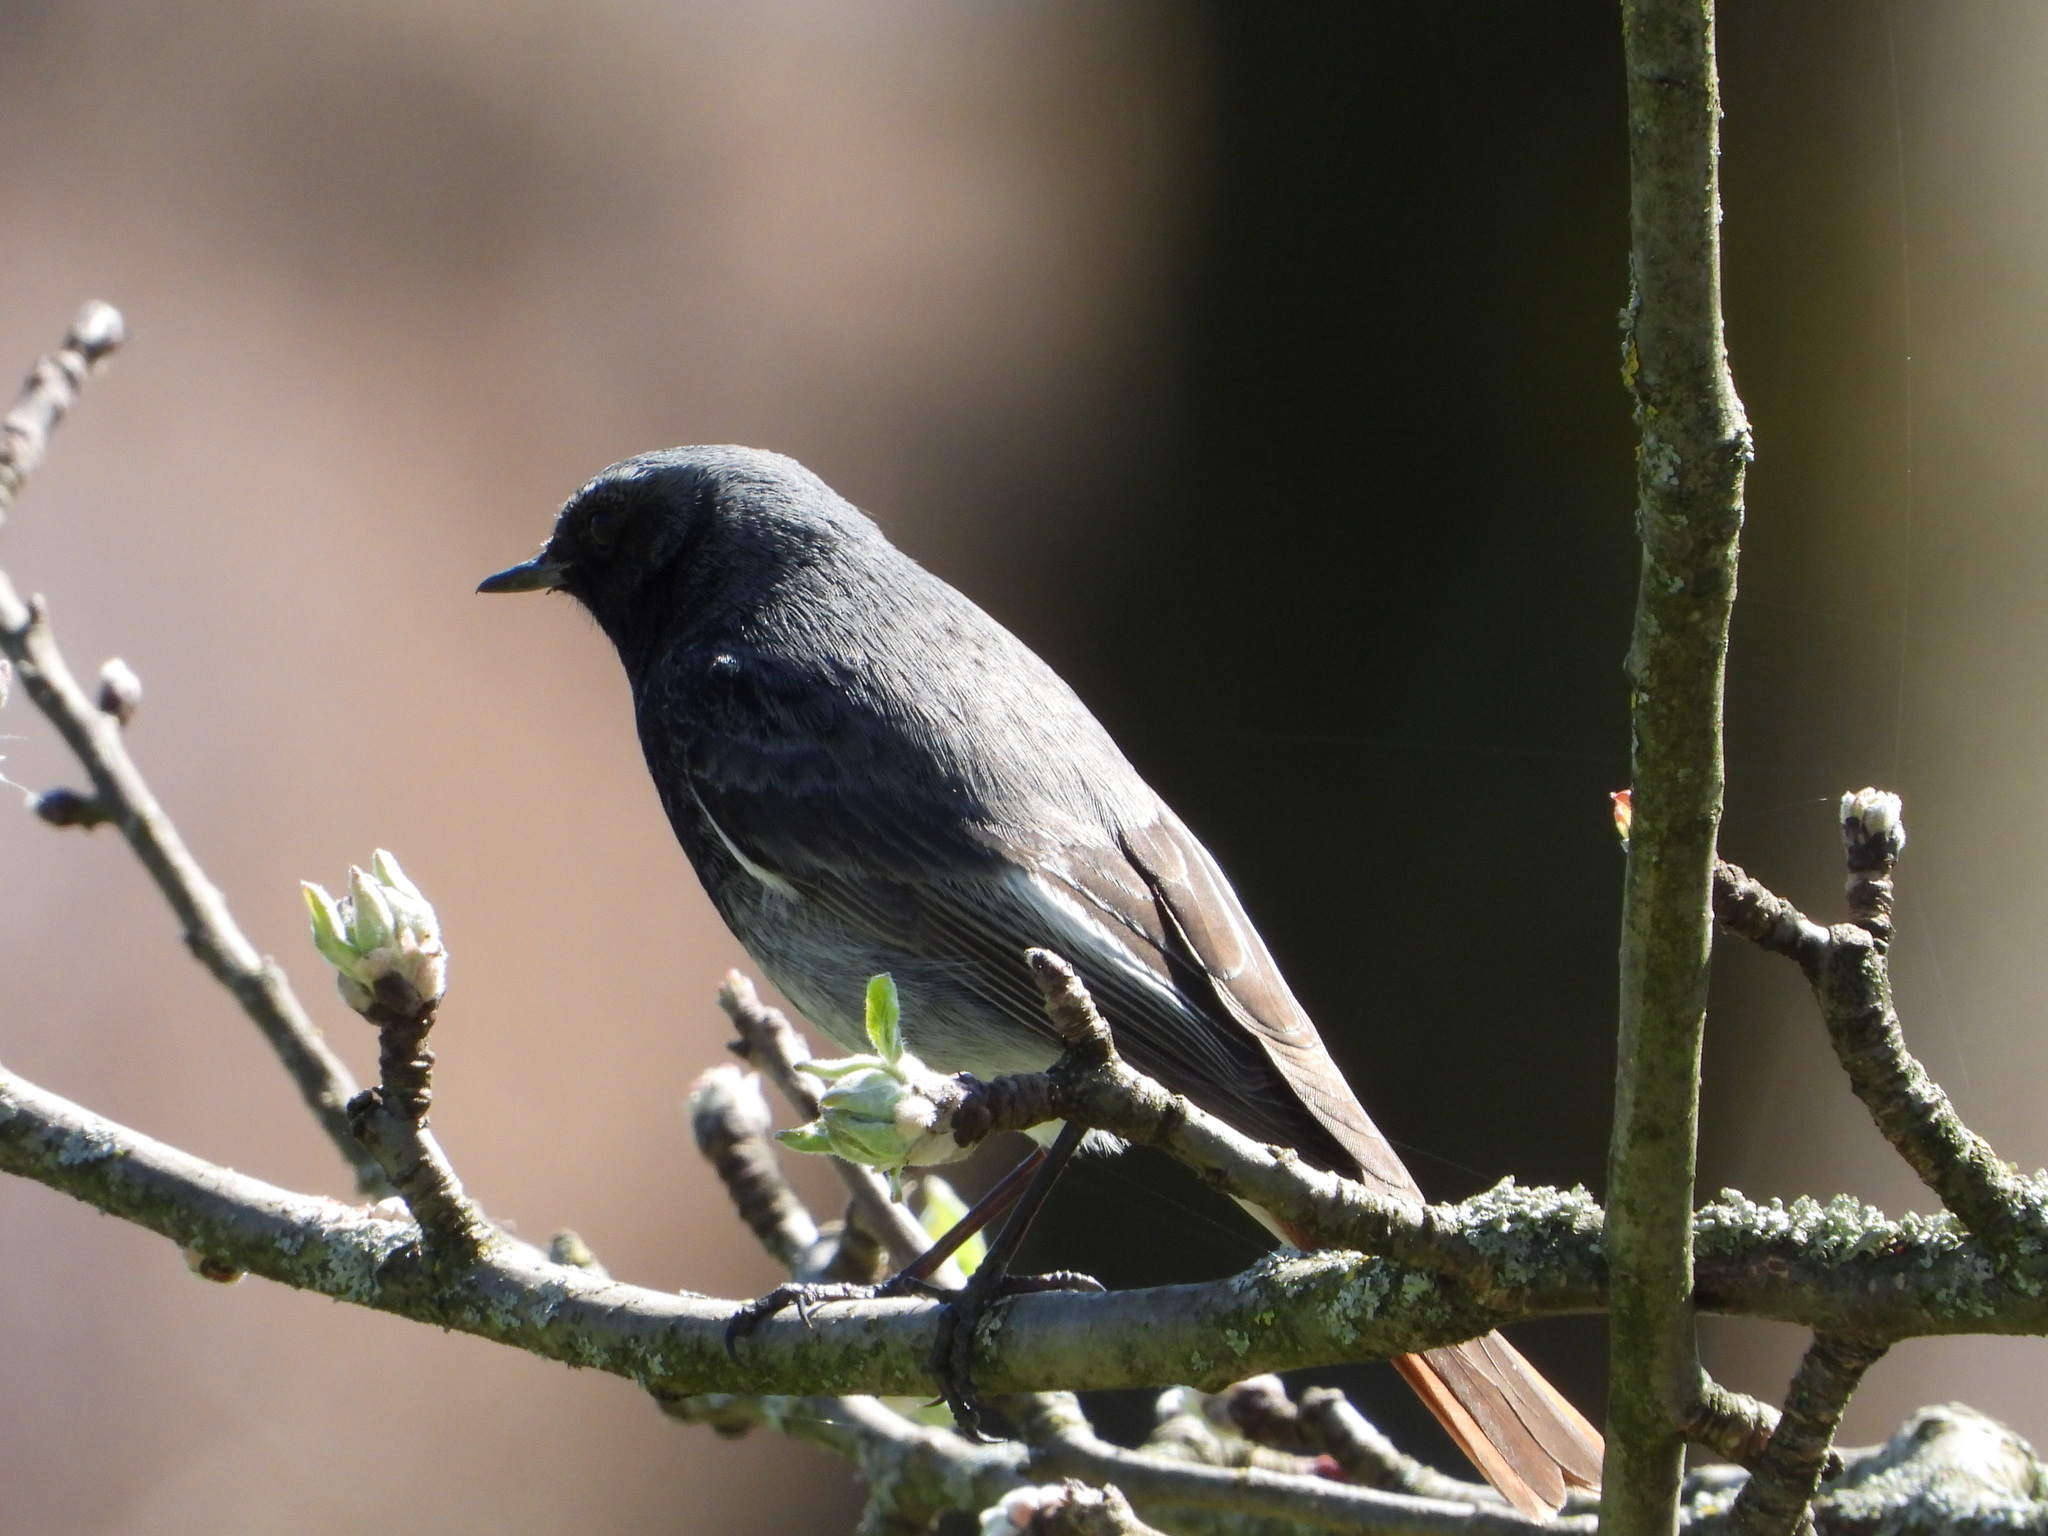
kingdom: Animalia
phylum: Chordata
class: Aves
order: Passeriformes
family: Muscicapidae
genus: Phoenicurus
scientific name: Phoenicurus ochruros
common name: Black redstart
